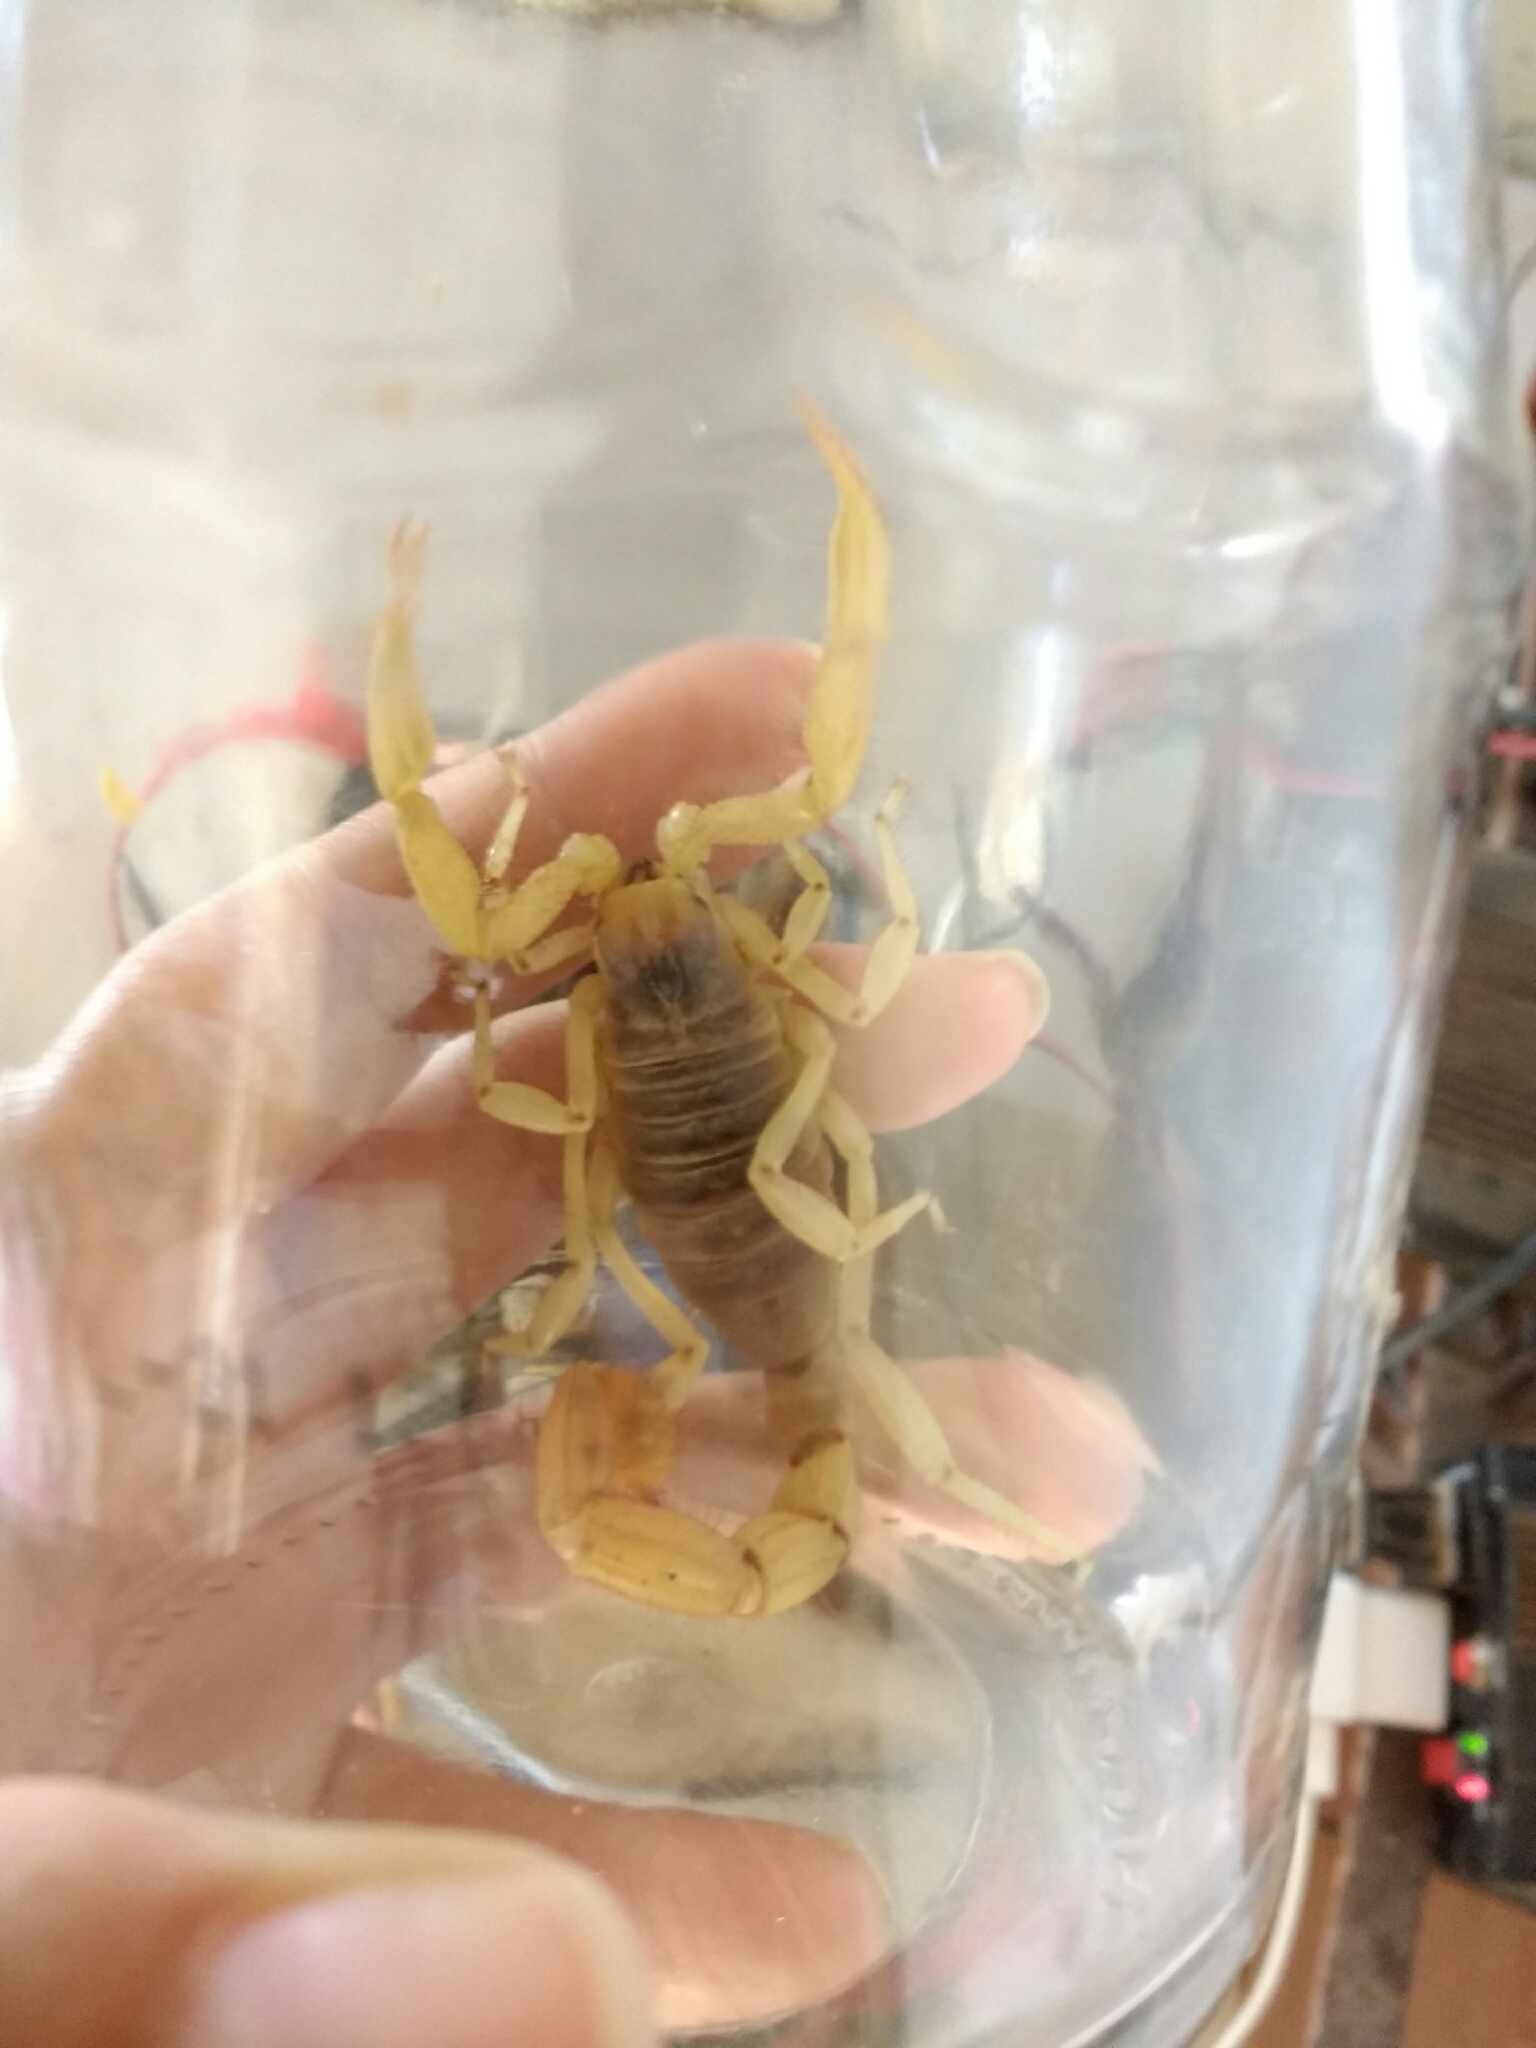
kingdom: Animalia
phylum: Arthropoda
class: Arachnida
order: Scorpiones
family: Hadruridae
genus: Hadrurus
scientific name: Hadrurus arizonensis
